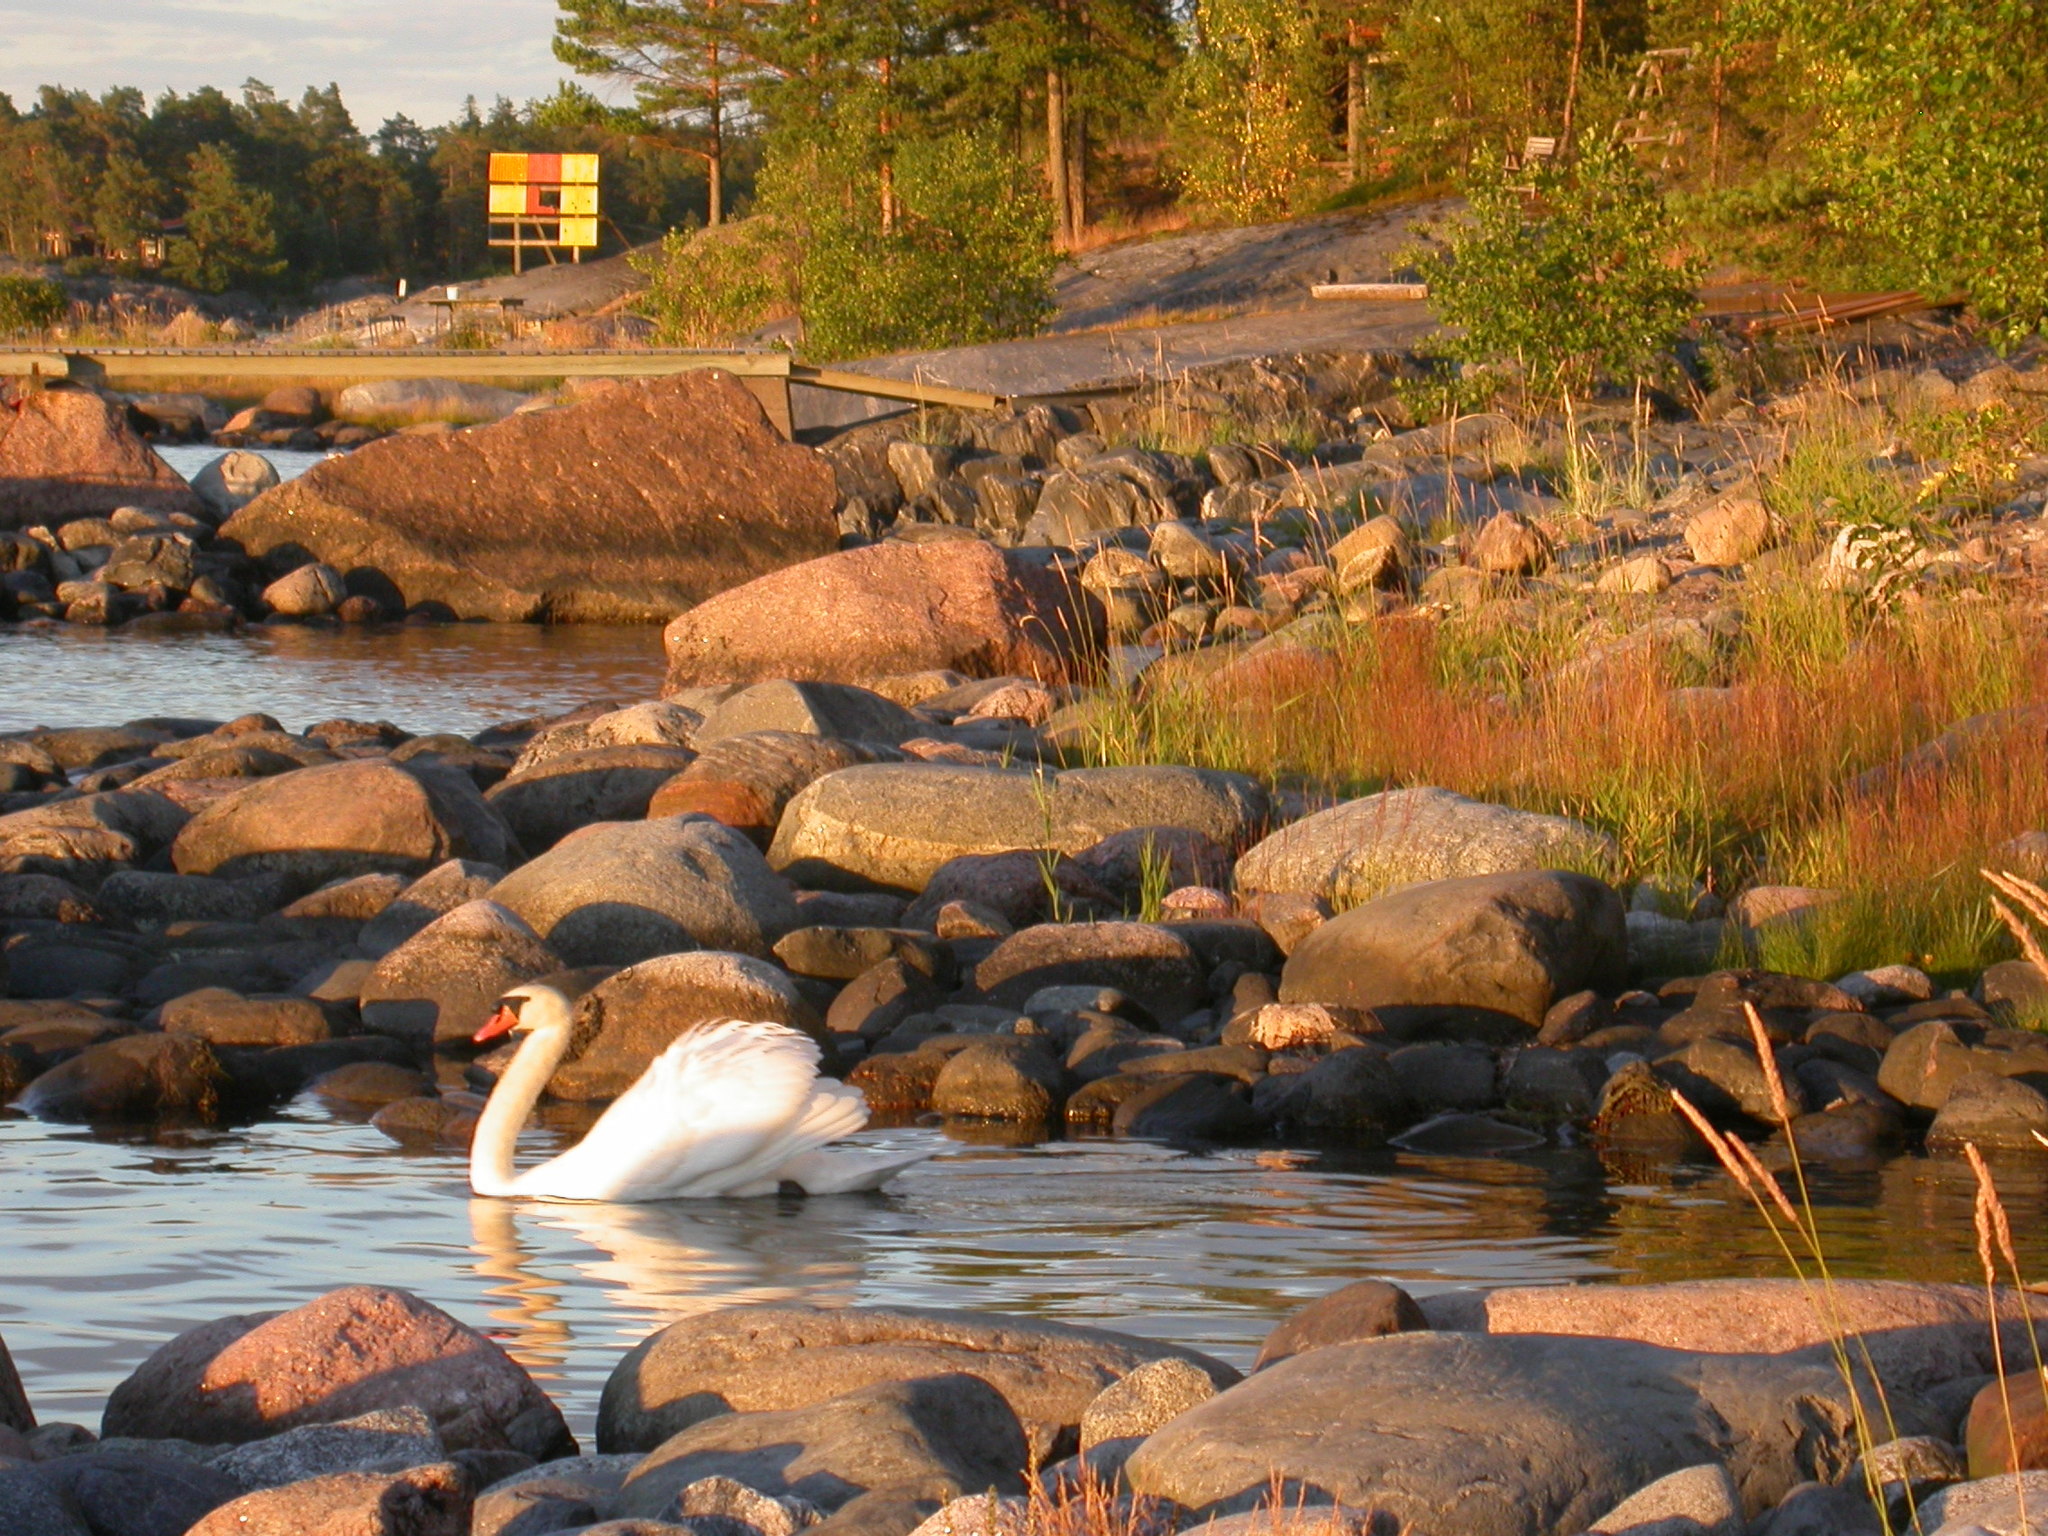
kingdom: Animalia
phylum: Chordata
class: Aves
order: Anseriformes
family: Anatidae
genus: Cygnus
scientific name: Cygnus olor
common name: Mute swan
